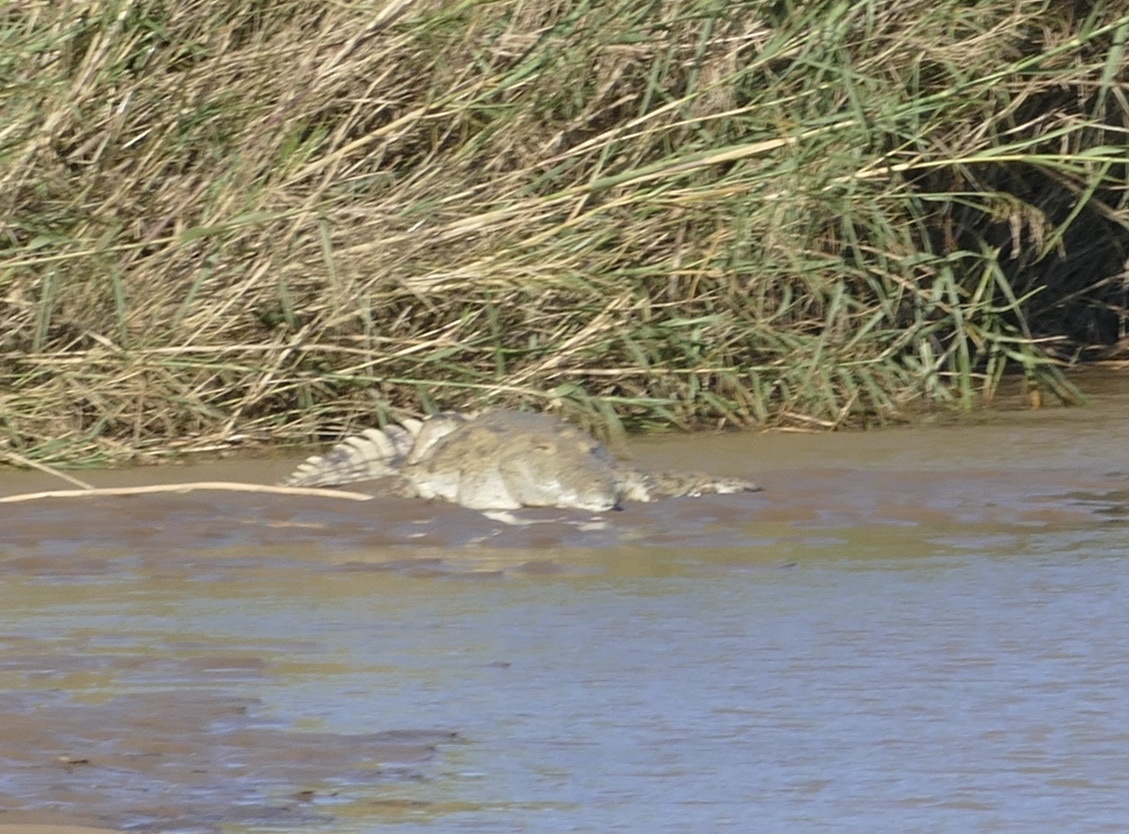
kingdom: Animalia
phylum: Chordata
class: Crocodylia
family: Crocodylidae
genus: Crocodylus
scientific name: Crocodylus niloticus
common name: Nile crocodile
